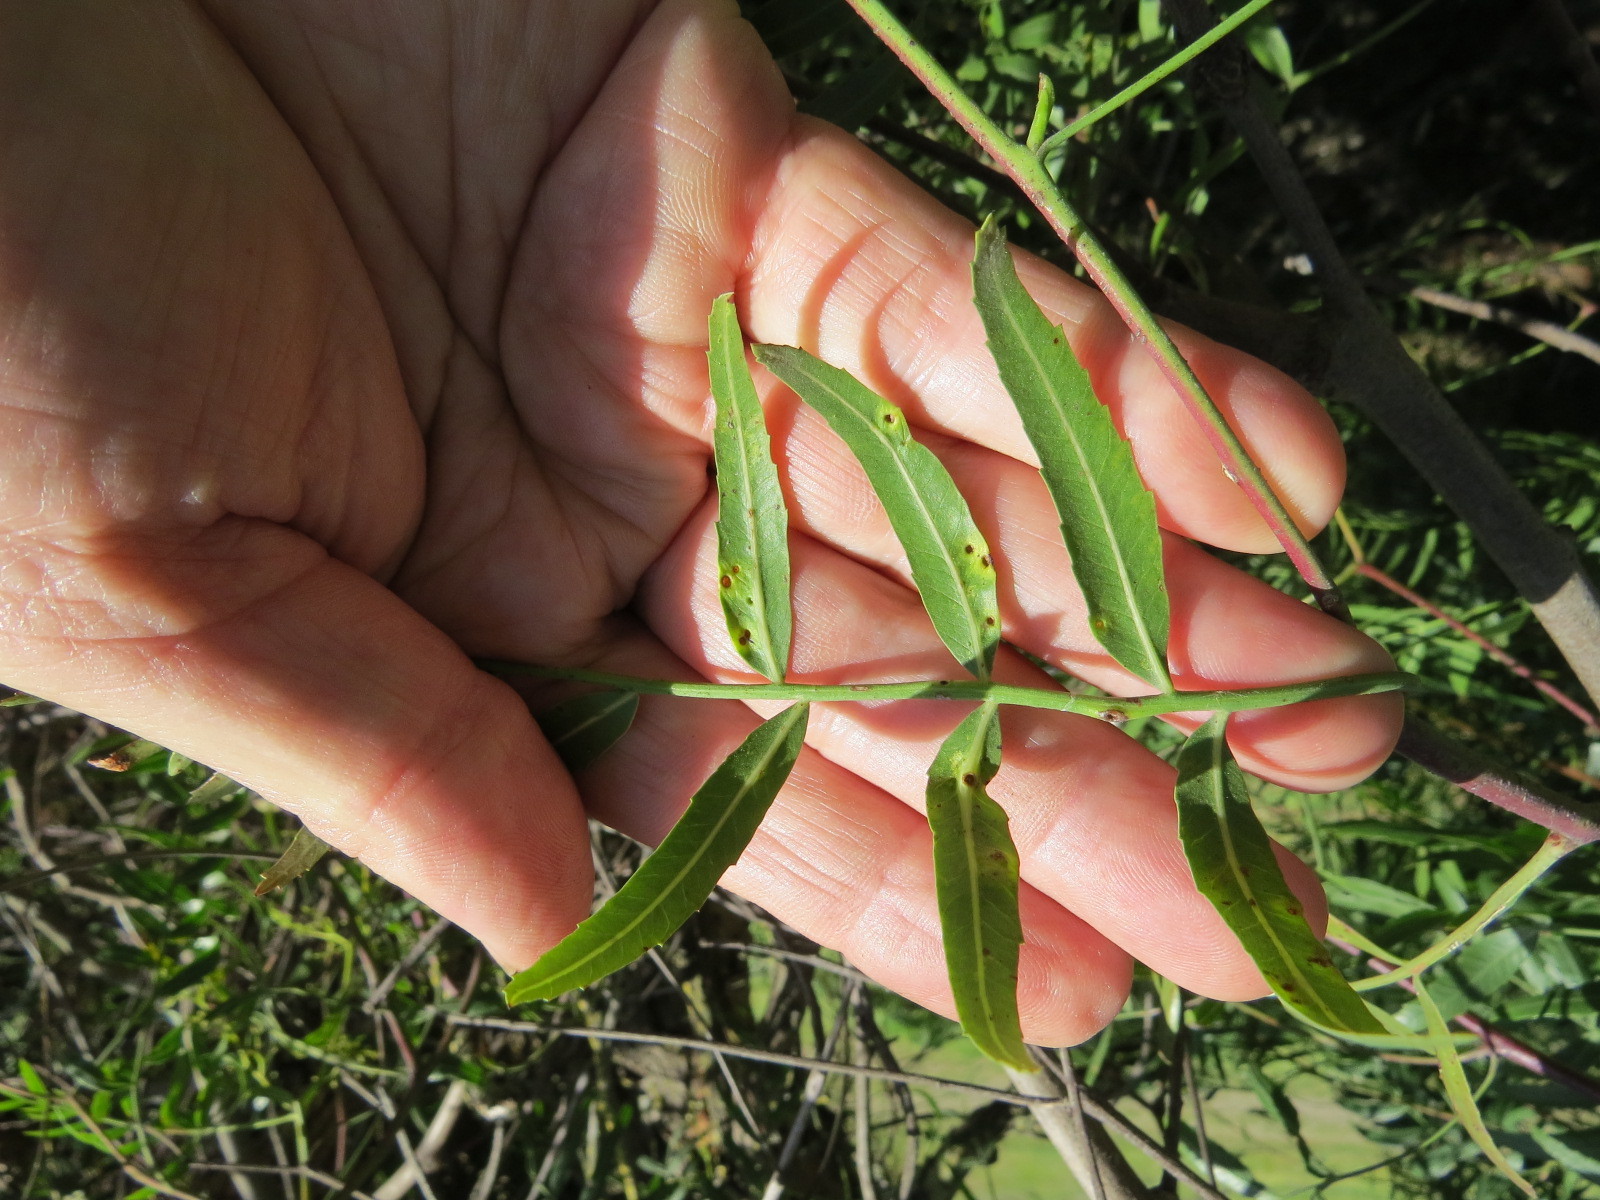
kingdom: Animalia
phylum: Arthropoda
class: Insecta
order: Hemiptera
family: Calophyidae
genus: Calophya
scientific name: Calophya schini
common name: Pepper tree psyllid
